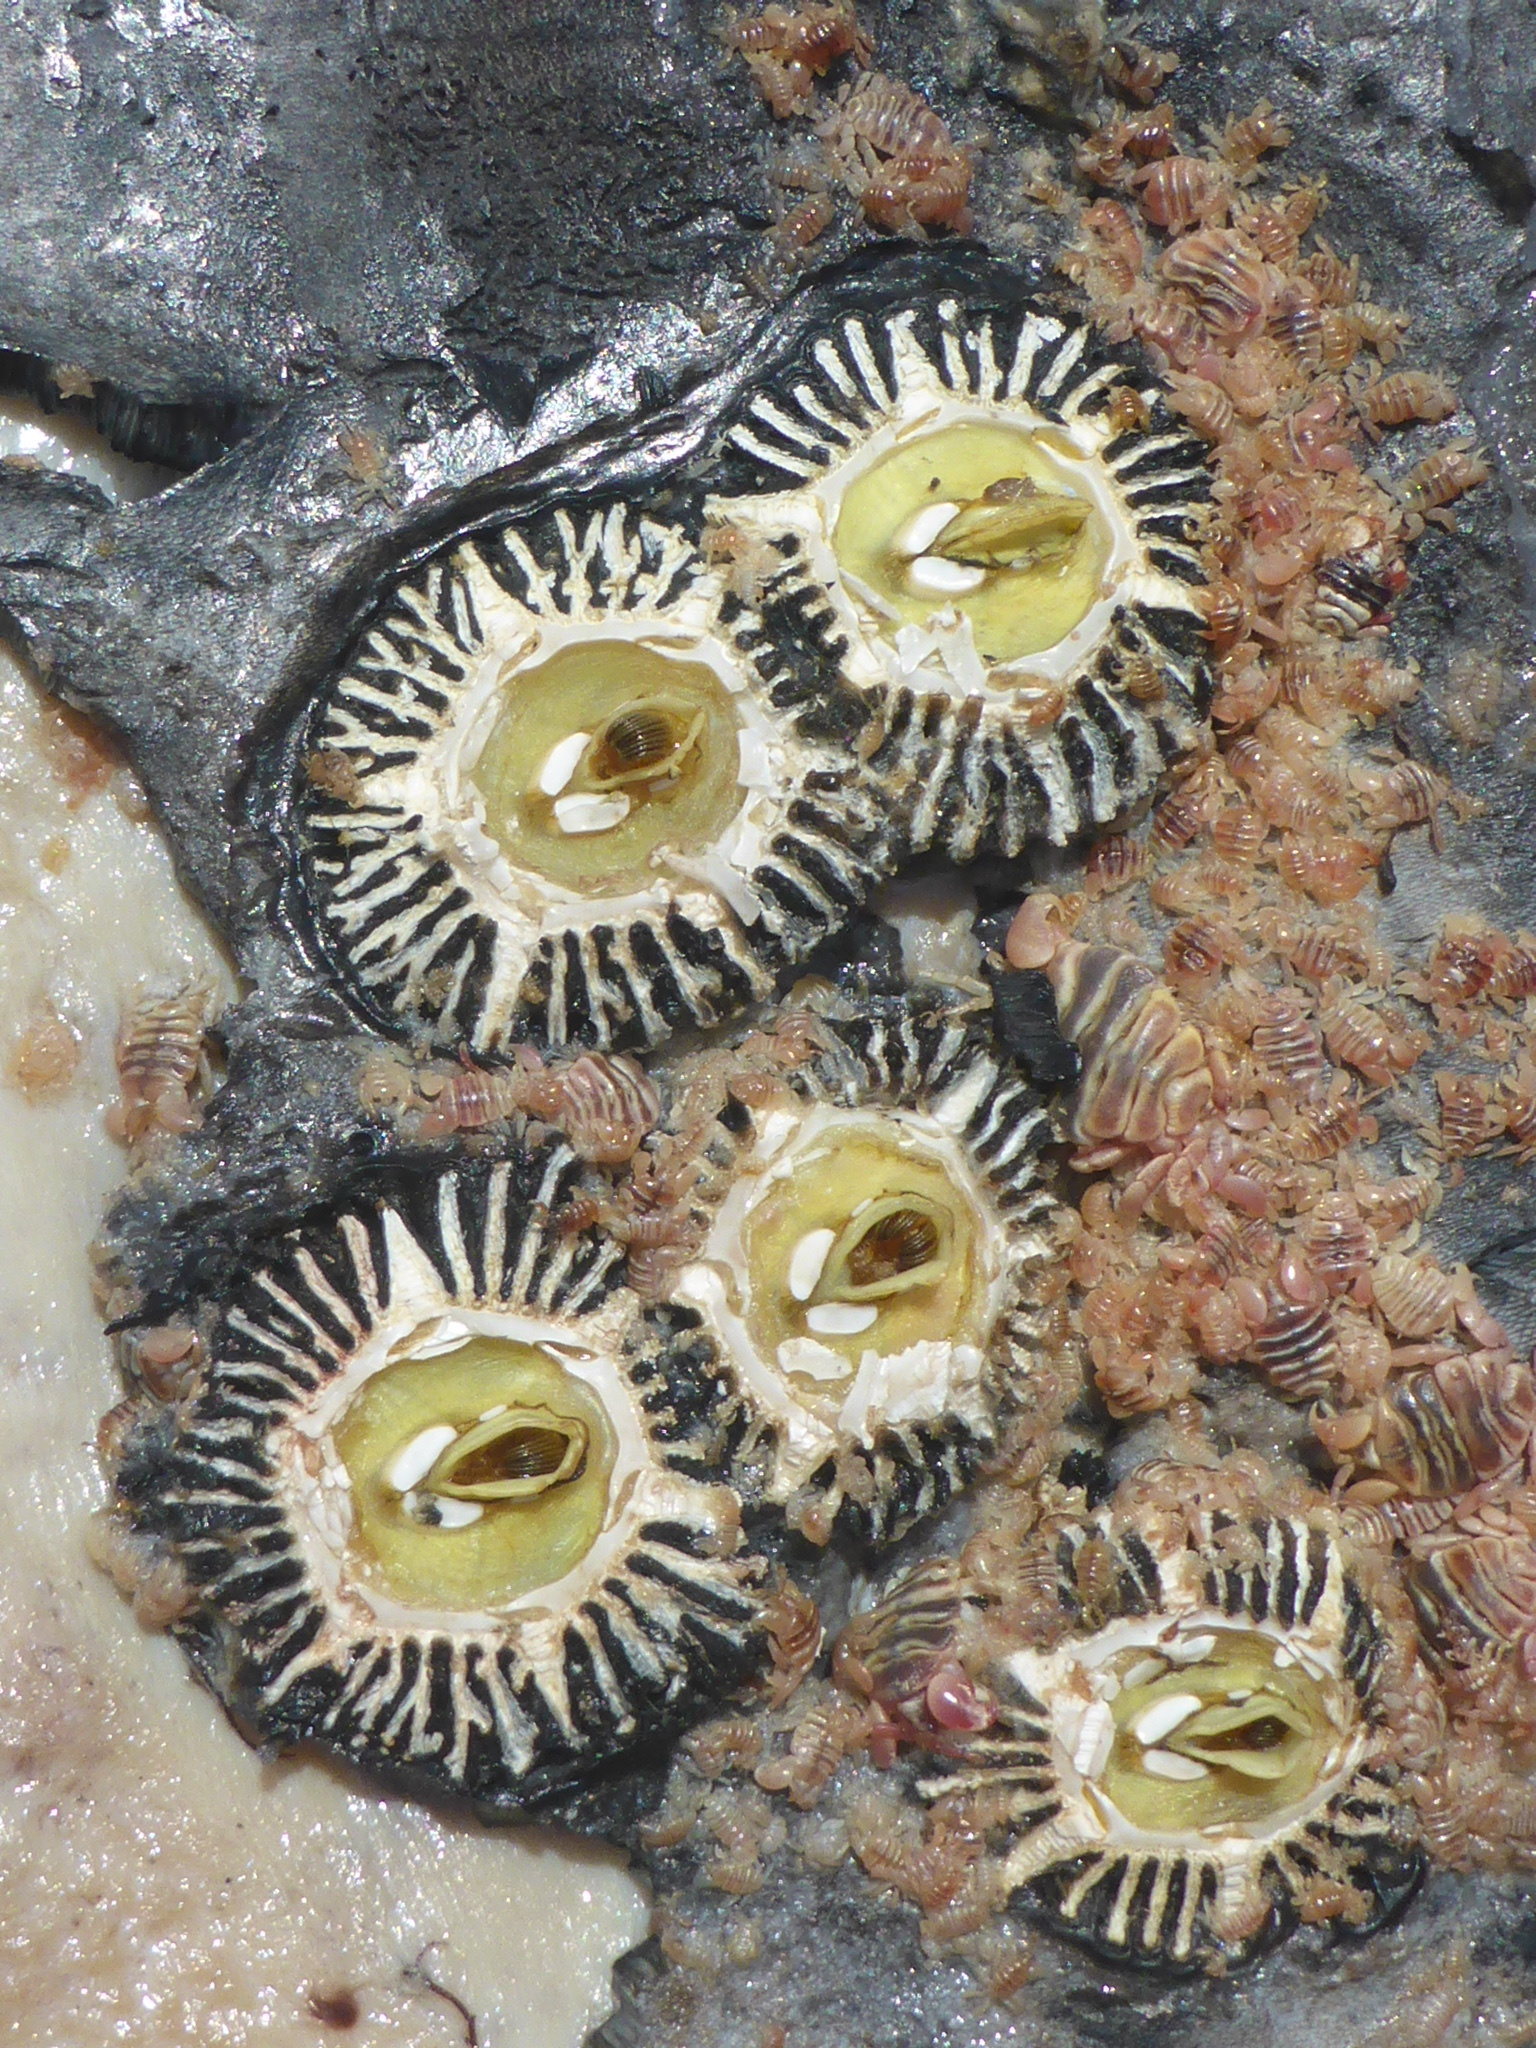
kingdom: Animalia
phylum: Arthropoda
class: Maxillopoda
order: Sessilia
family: Coronulidae
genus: Cryptolepas
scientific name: Cryptolepas rhachianecti
